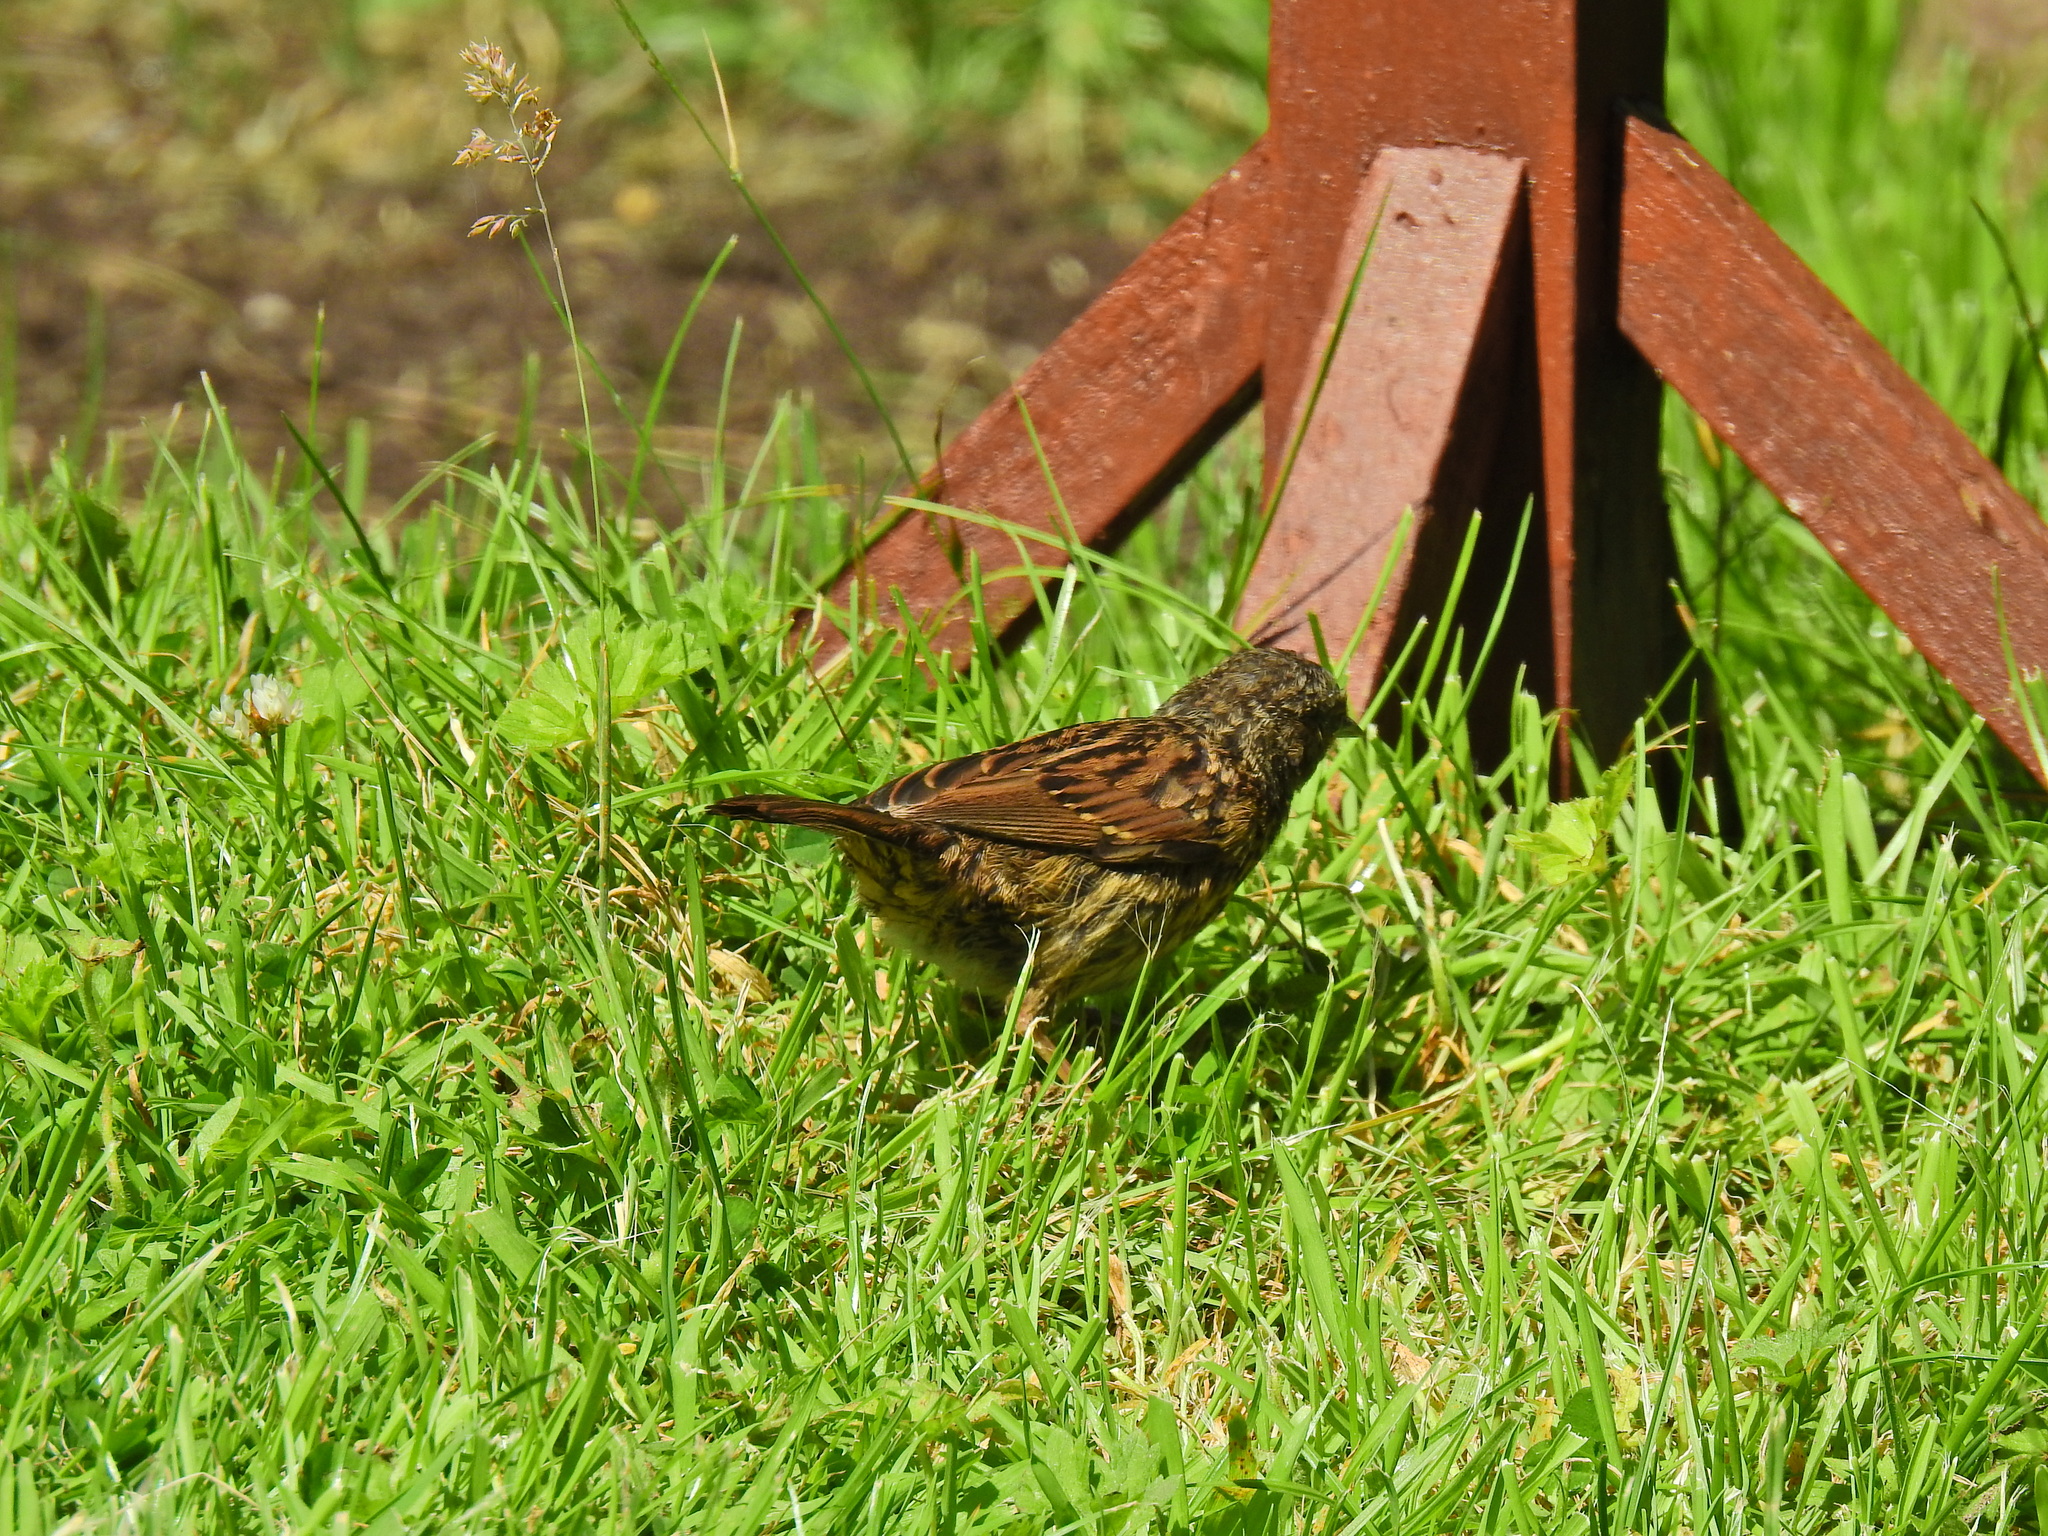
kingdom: Animalia
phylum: Chordata
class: Aves
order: Passeriformes
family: Prunellidae
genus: Prunella
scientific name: Prunella modularis
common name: Dunnock
